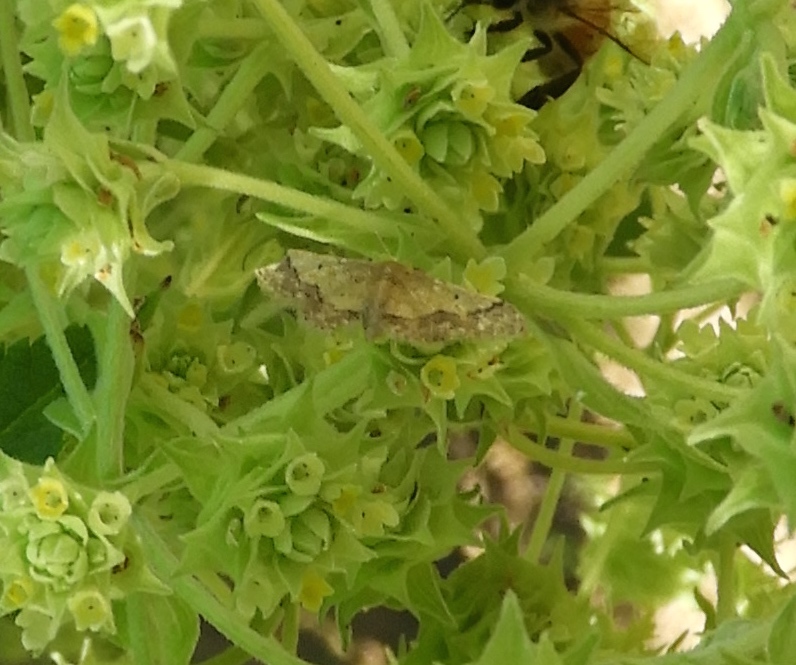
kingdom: Animalia
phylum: Arthropoda
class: Insecta
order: Lepidoptera
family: Geometridae
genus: Idaea
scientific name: Idaea
